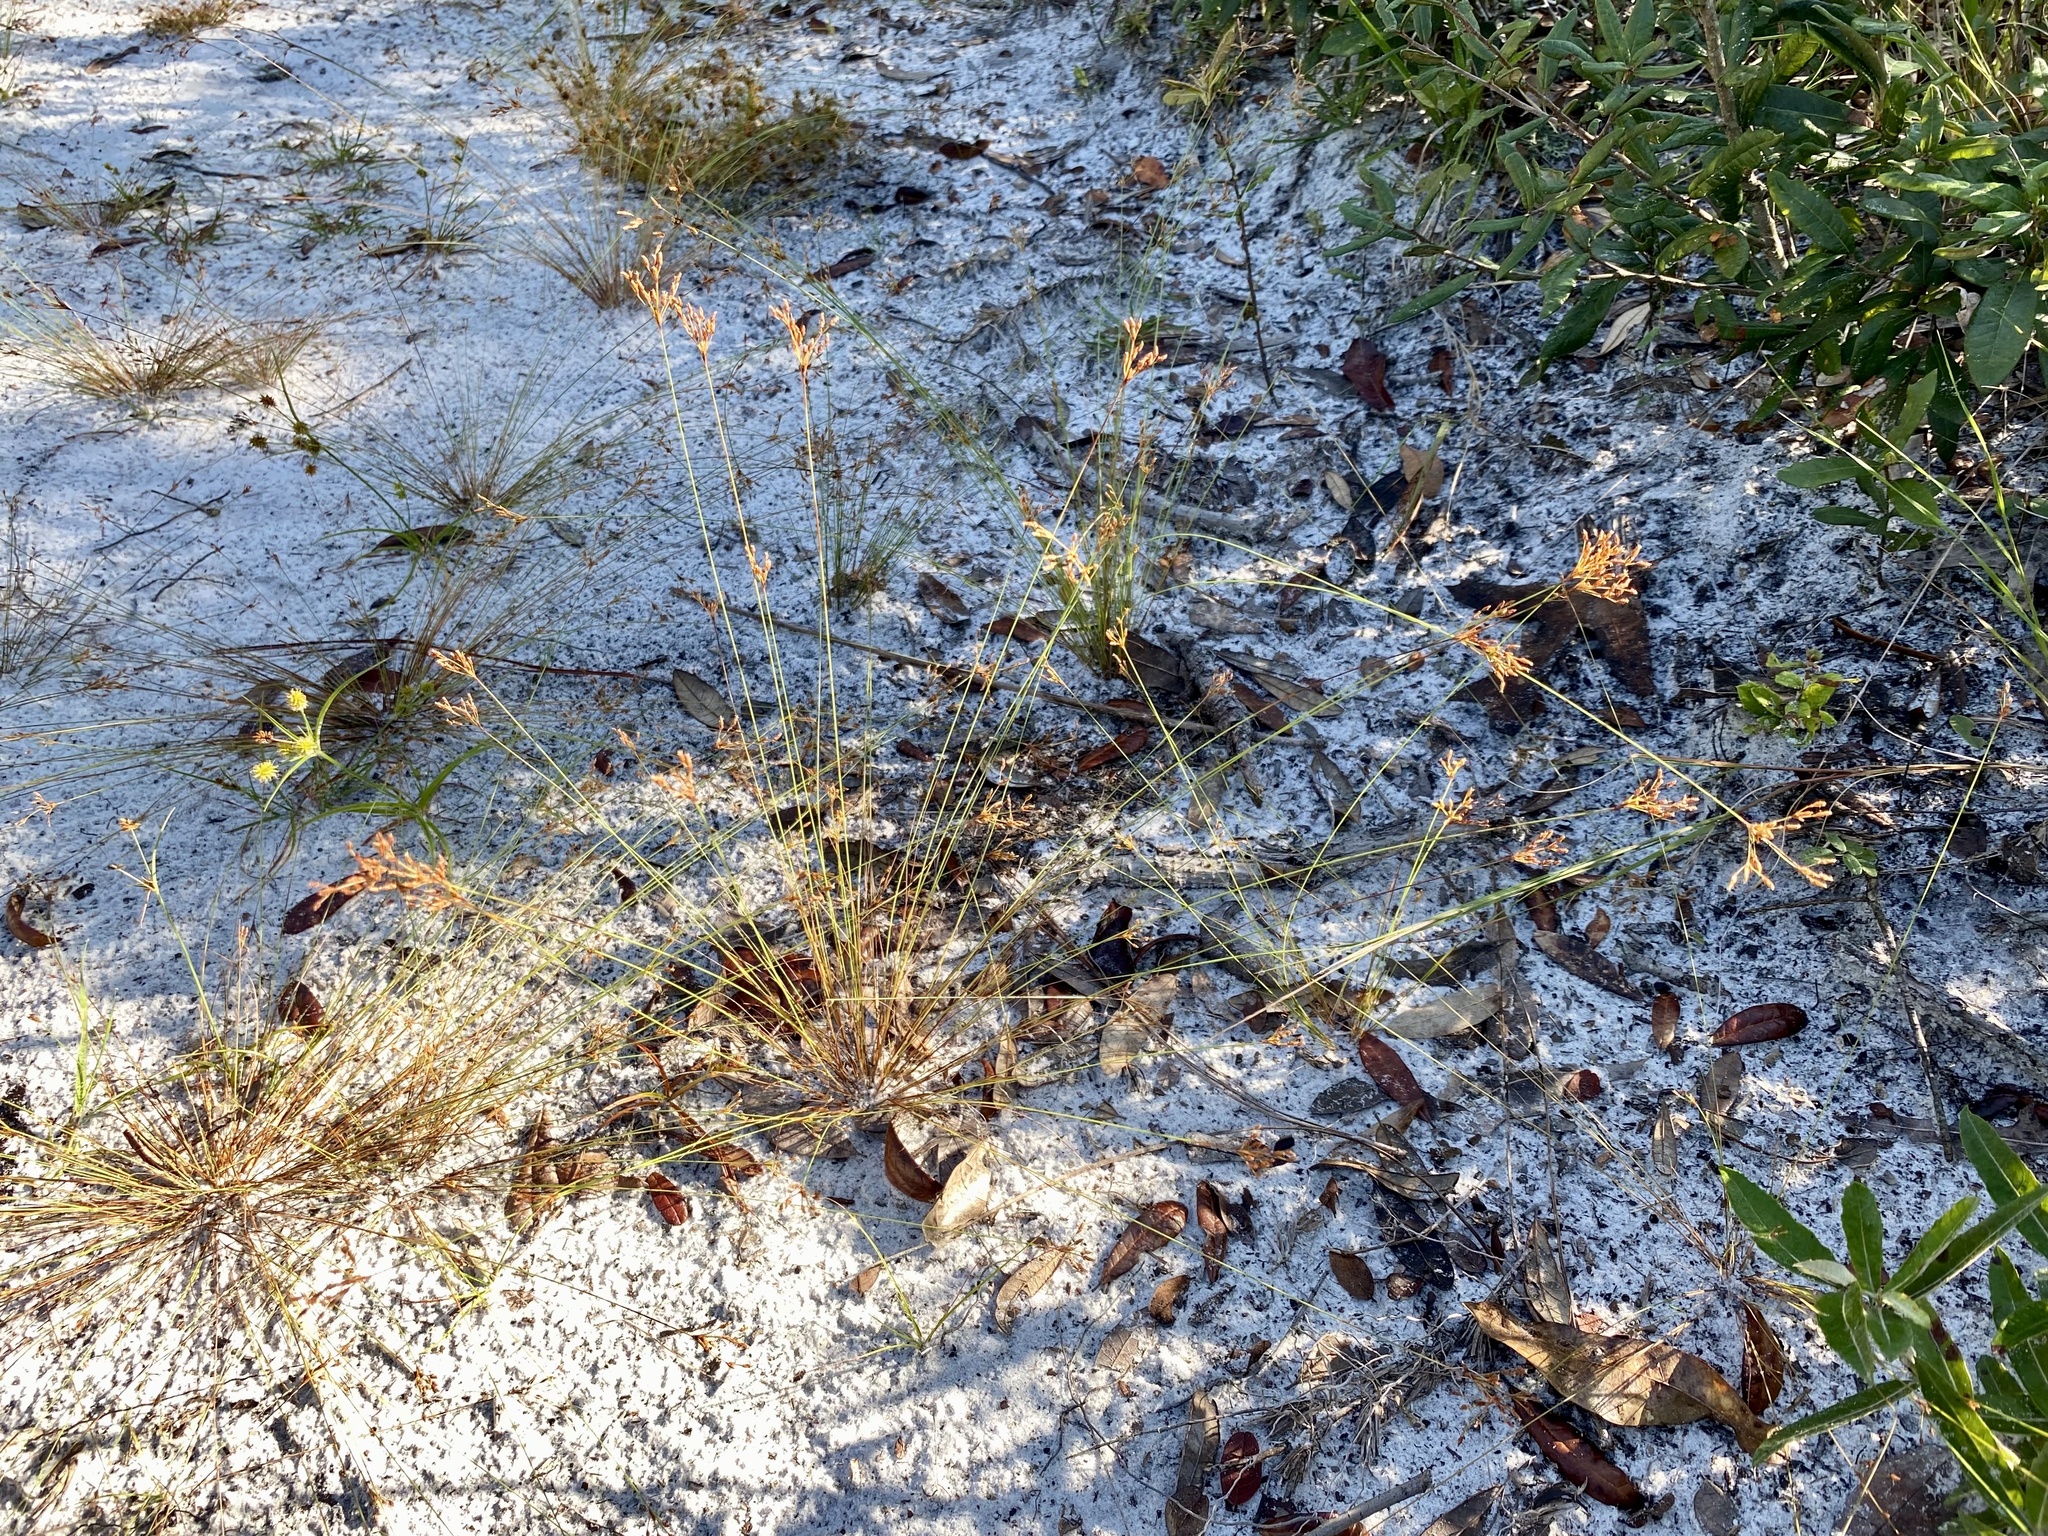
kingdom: Plantae
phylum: Tracheophyta
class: Liliopsida
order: Poales
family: Cyperaceae
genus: Bulbostylis
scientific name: Bulbostylis ciliatifolia
